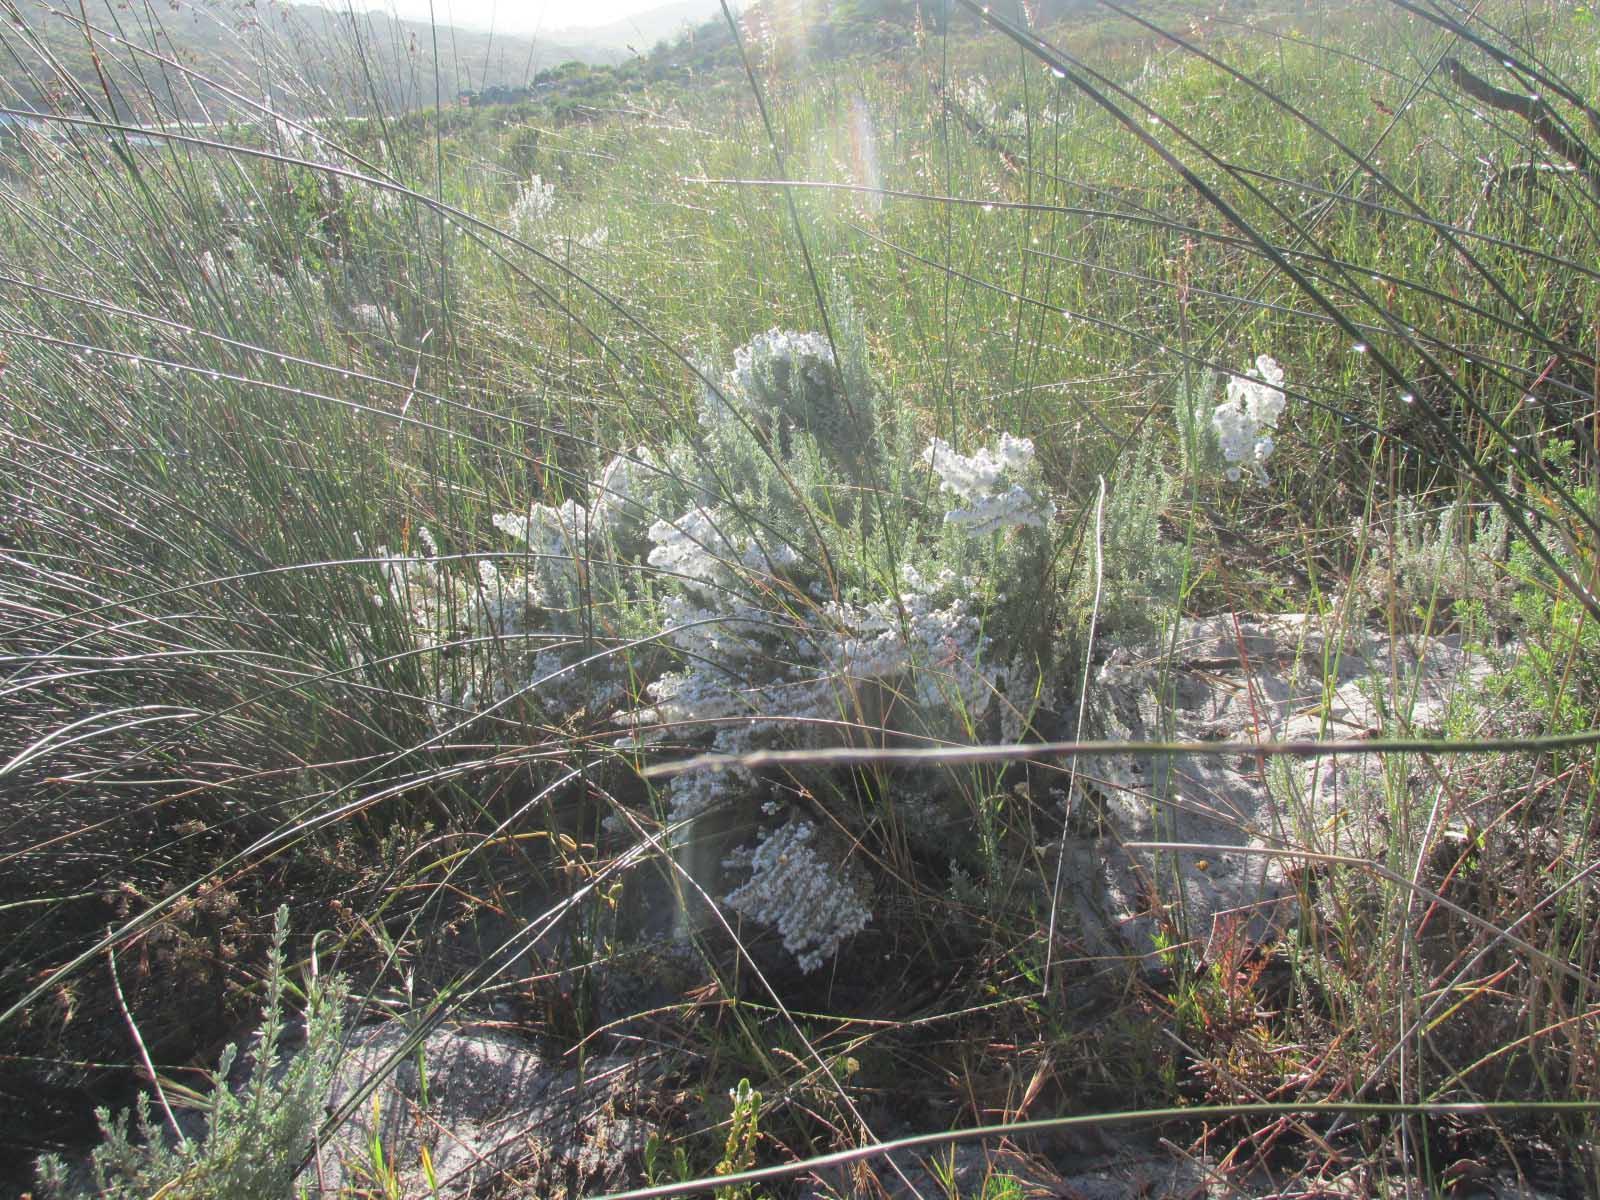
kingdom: Plantae
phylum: Tracheophyta
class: Magnoliopsida
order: Asterales
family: Asteraceae
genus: Eriocephalus
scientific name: Eriocephalus racemosus
